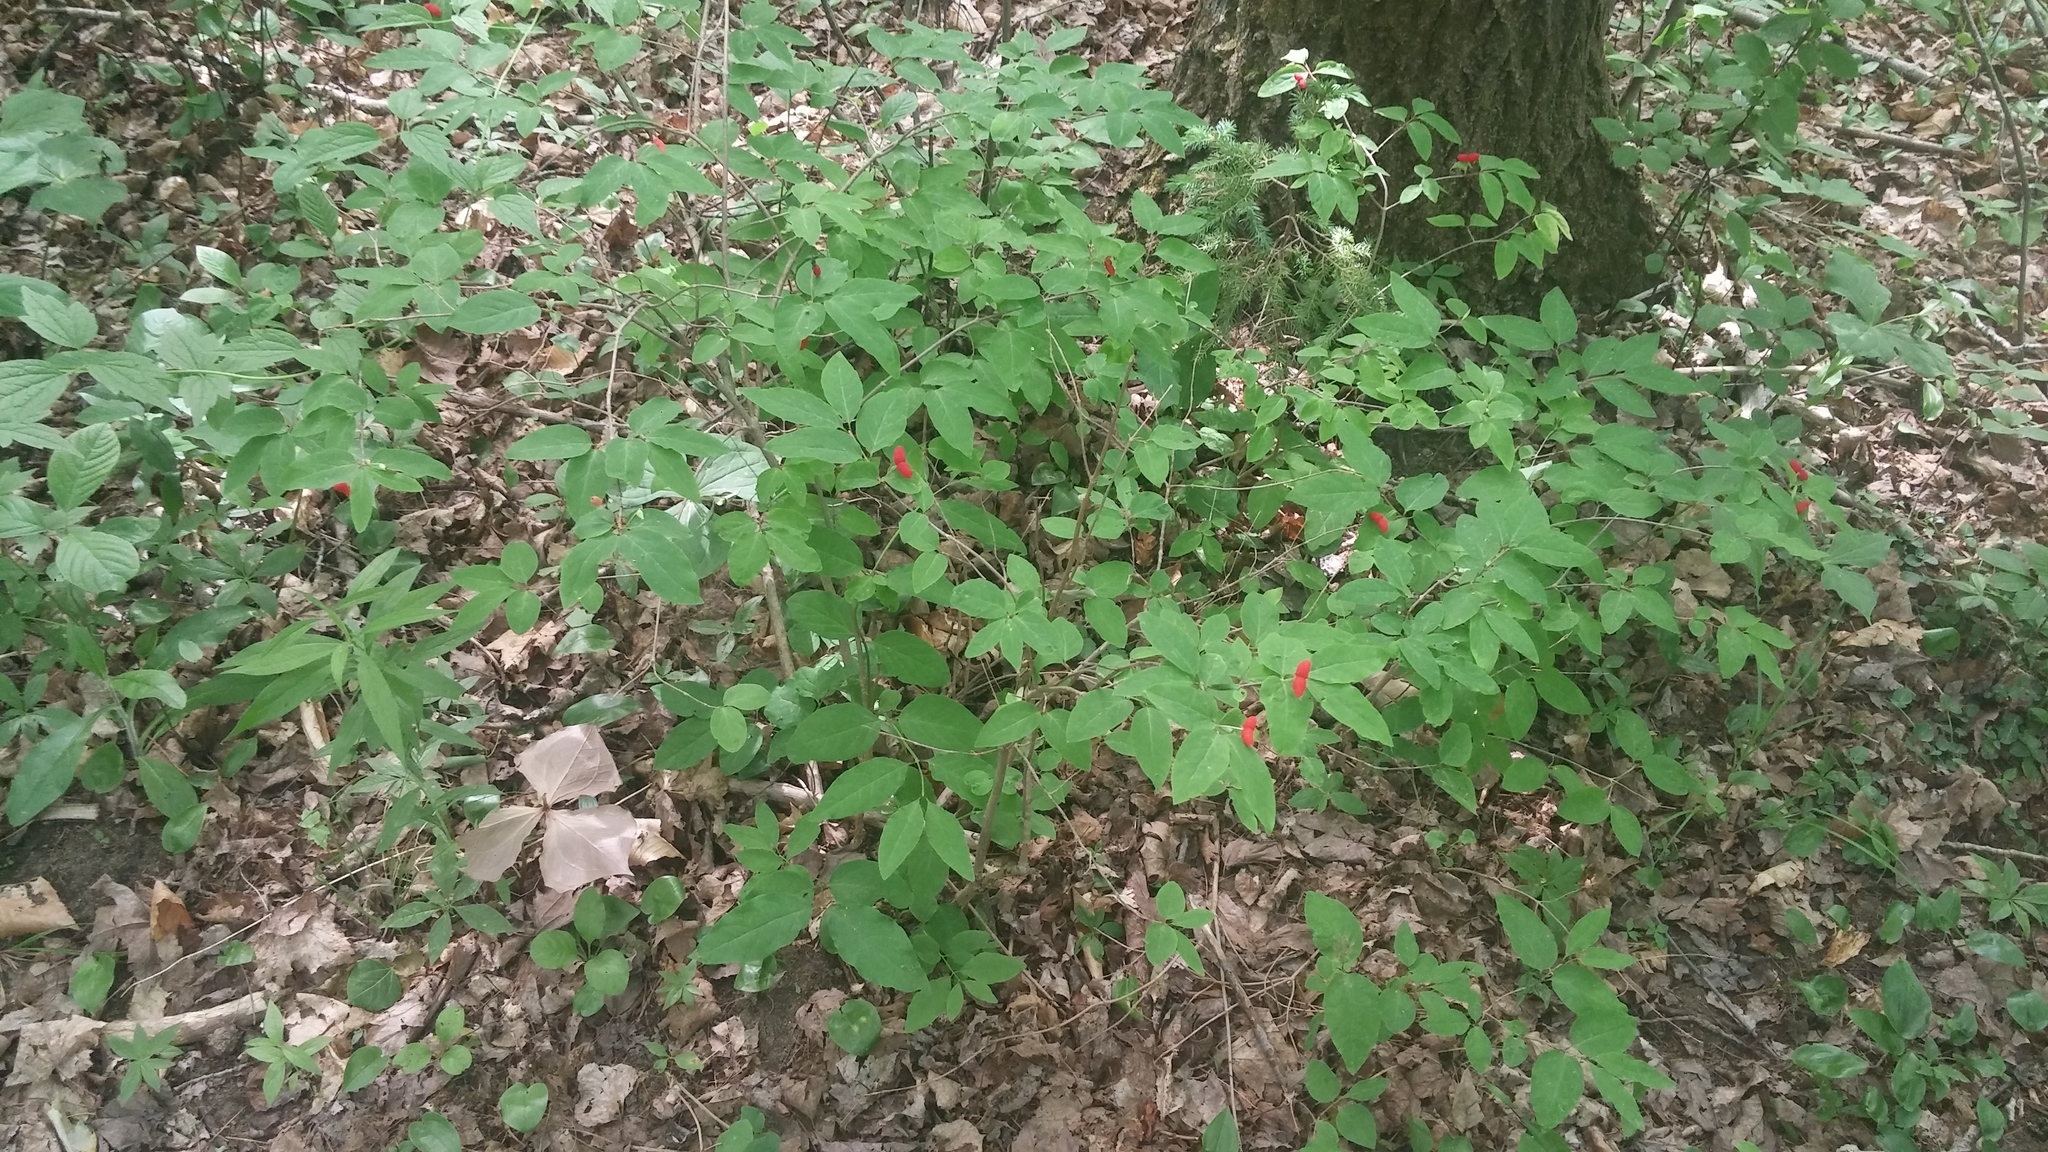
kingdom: Plantae
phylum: Tracheophyta
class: Magnoliopsida
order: Dipsacales
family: Caprifoliaceae
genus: Lonicera
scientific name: Lonicera canadensis
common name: American fly-honeysuckle
